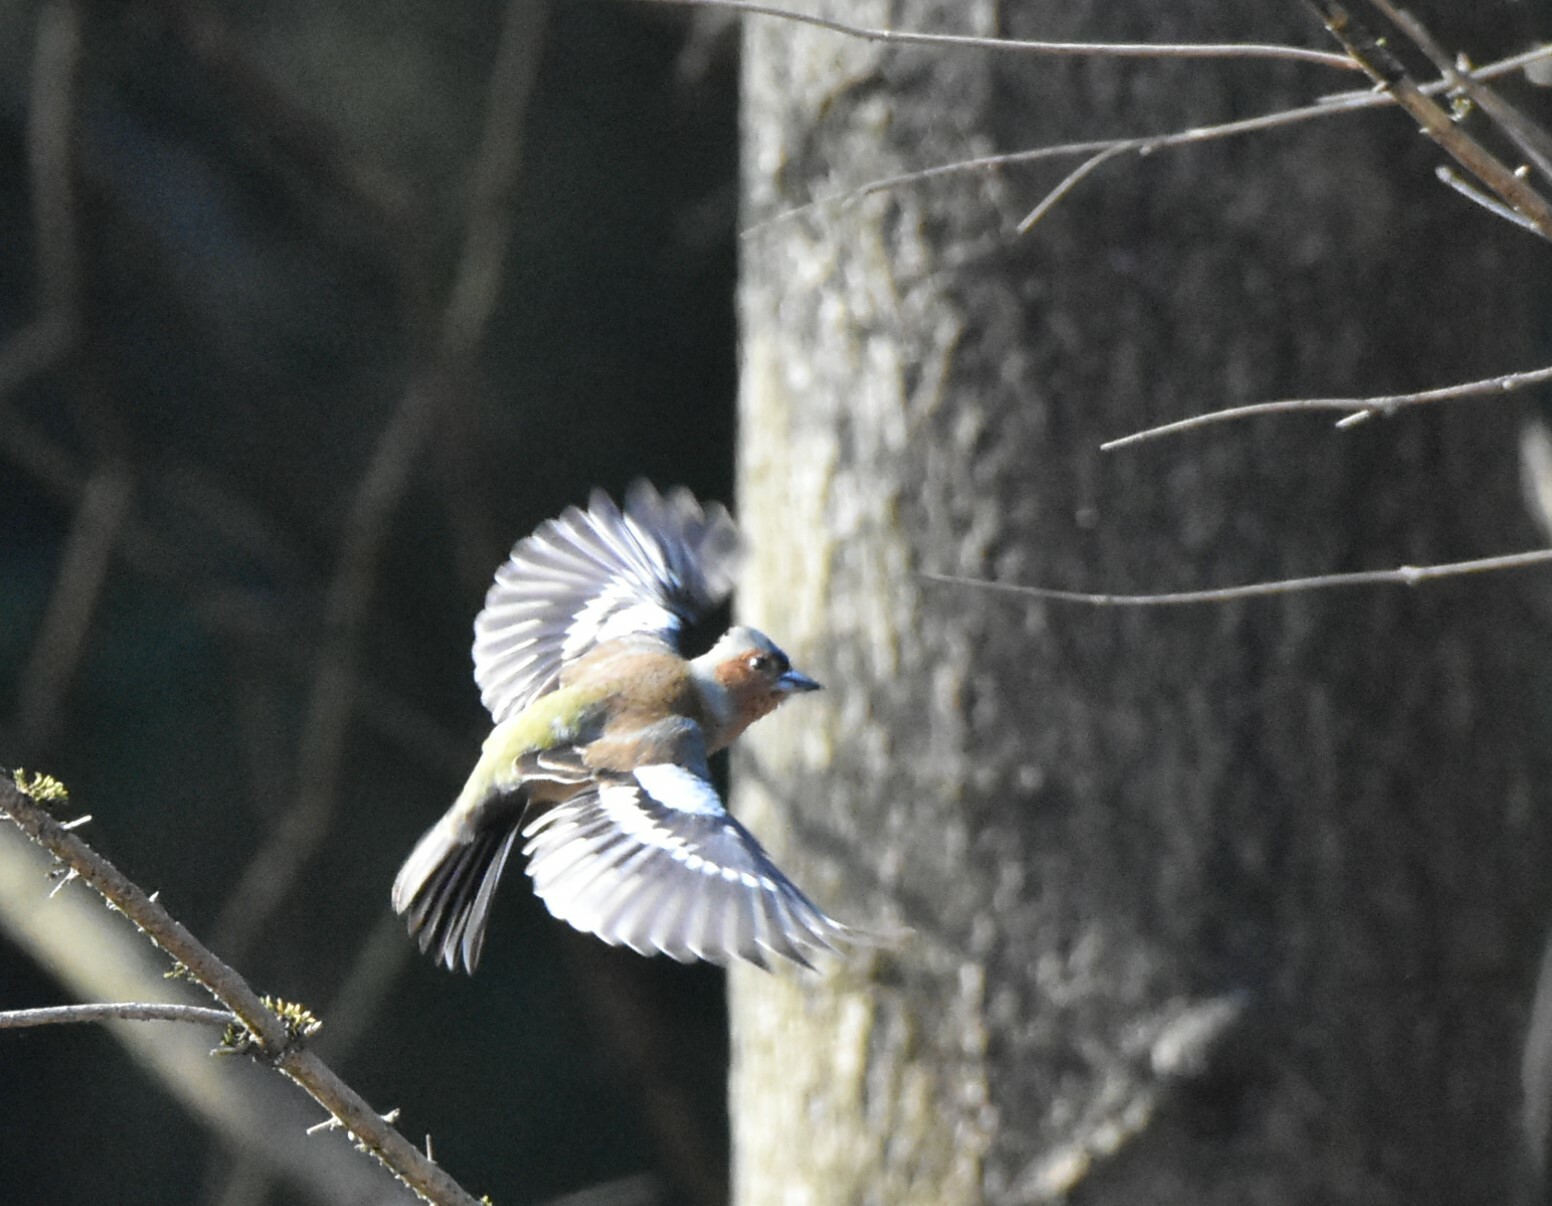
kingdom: Animalia
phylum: Chordata
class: Aves
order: Passeriformes
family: Fringillidae
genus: Fringilla
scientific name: Fringilla coelebs
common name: Common chaffinch
